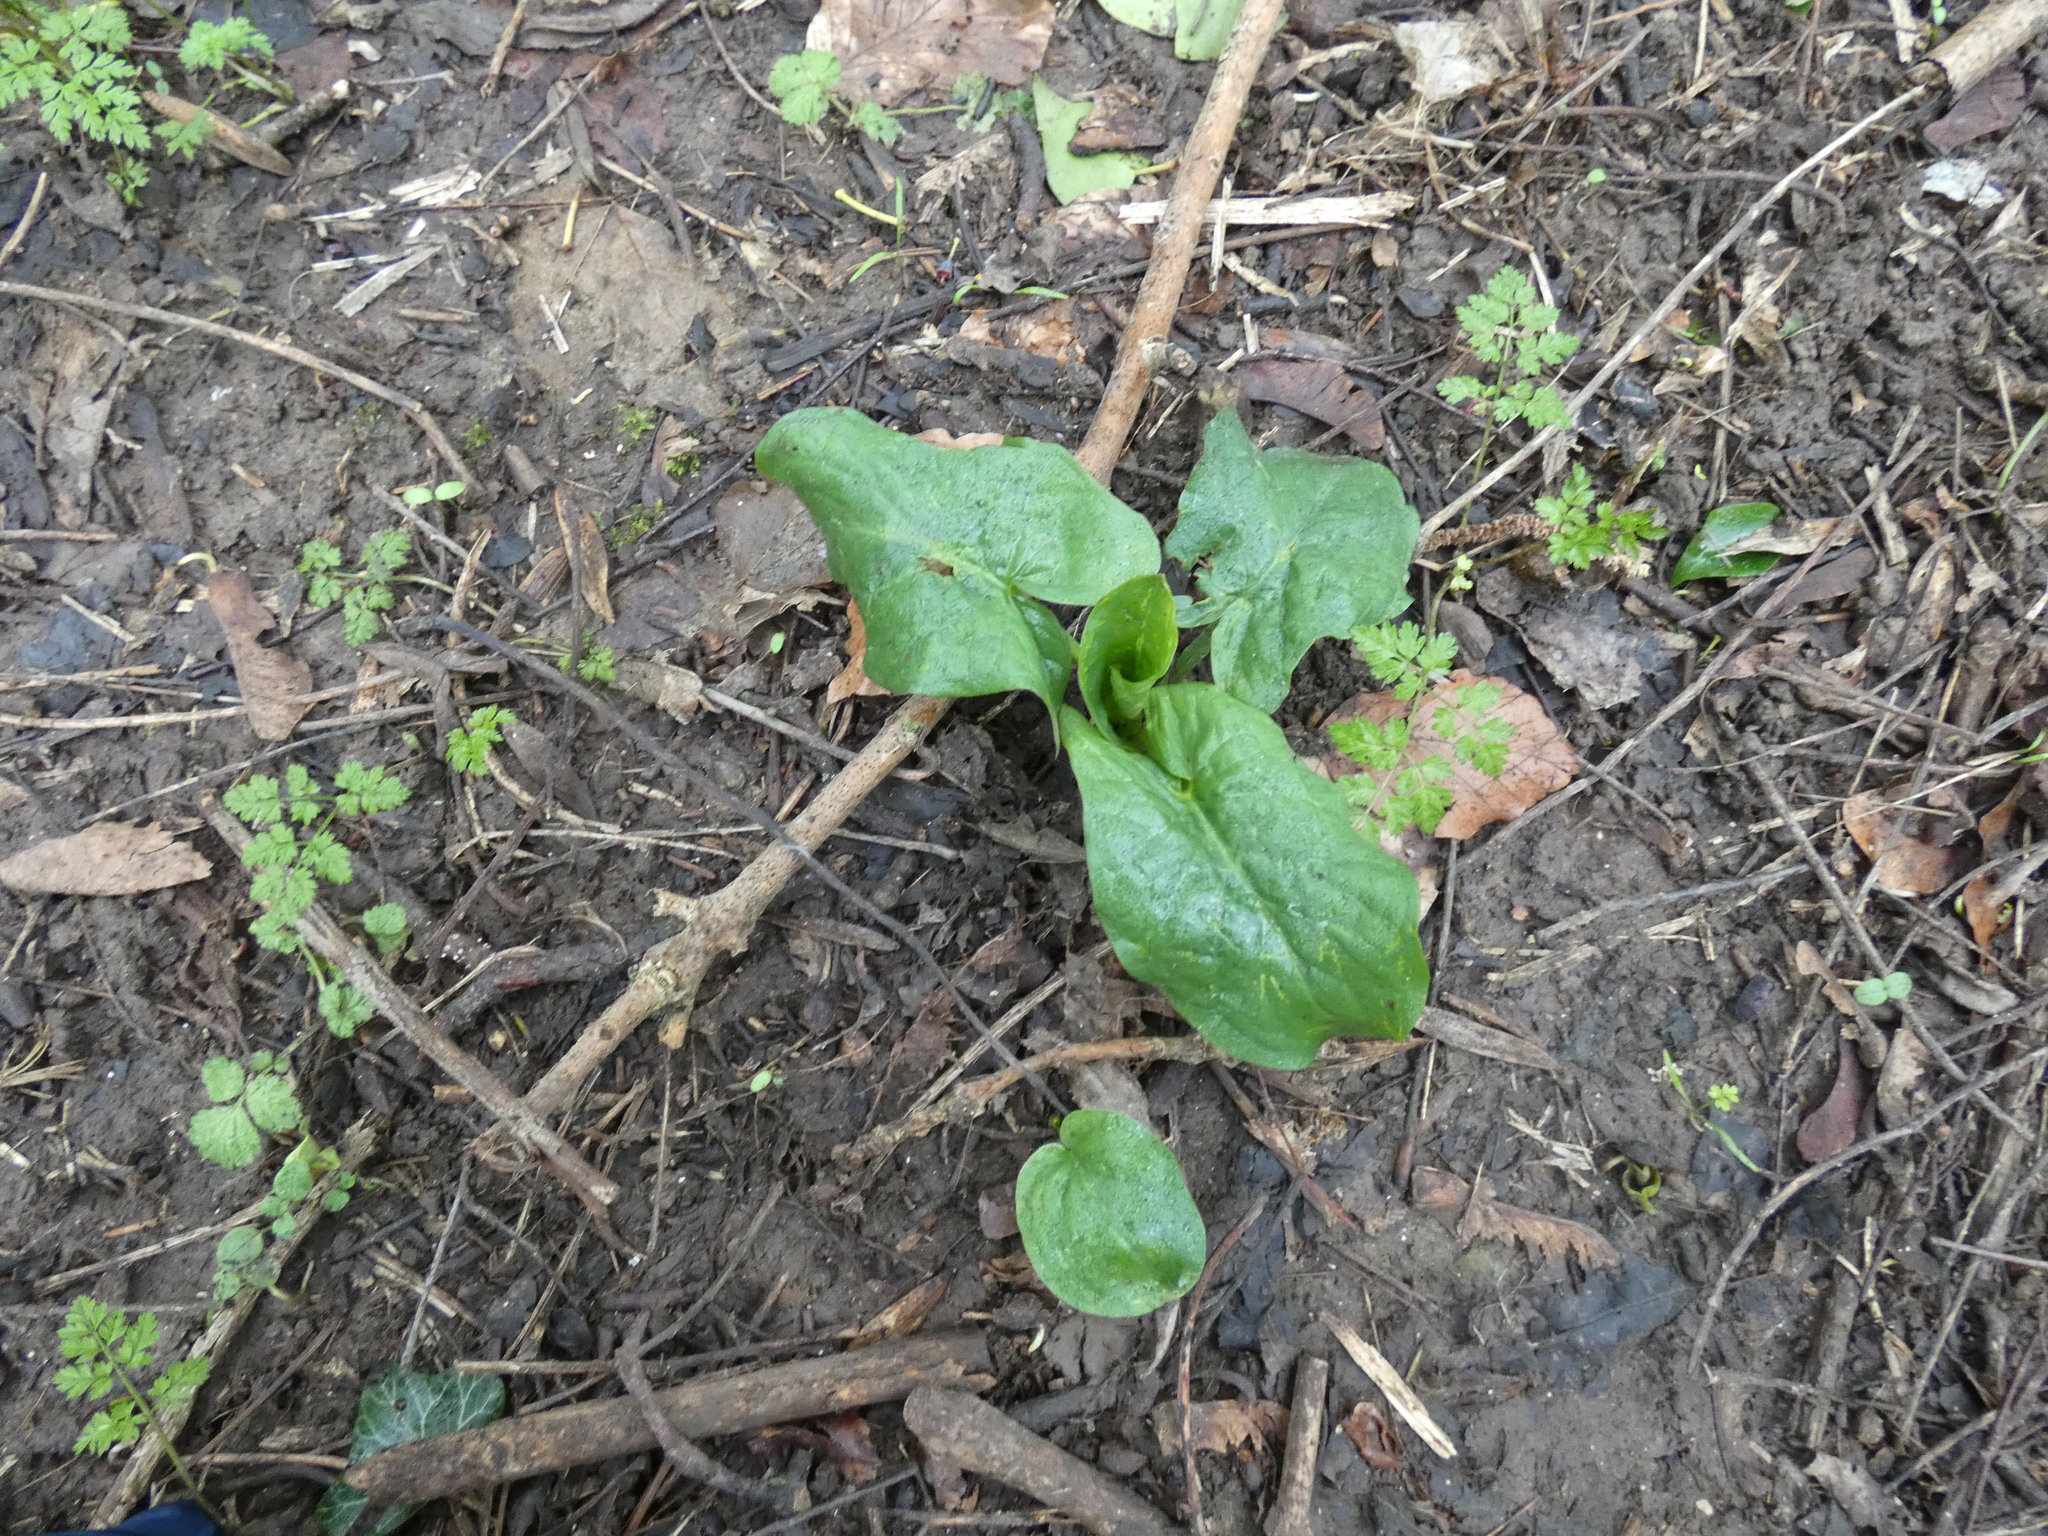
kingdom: Plantae
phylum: Tracheophyta
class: Liliopsida
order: Alismatales
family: Araceae
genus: Arum
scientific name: Arum maculatum
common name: Lords-and-ladies
